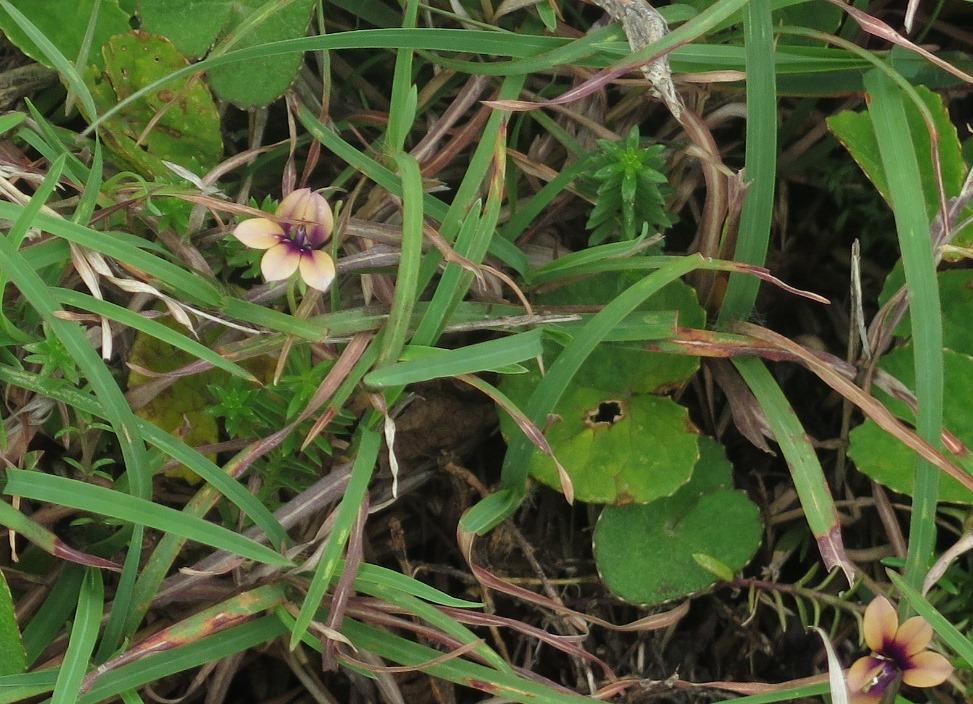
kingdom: Plantae
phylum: Tracheophyta
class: Magnoliopsida
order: Asterales
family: Campanulaceae
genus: Monopsis
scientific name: Monopsis unidentata
